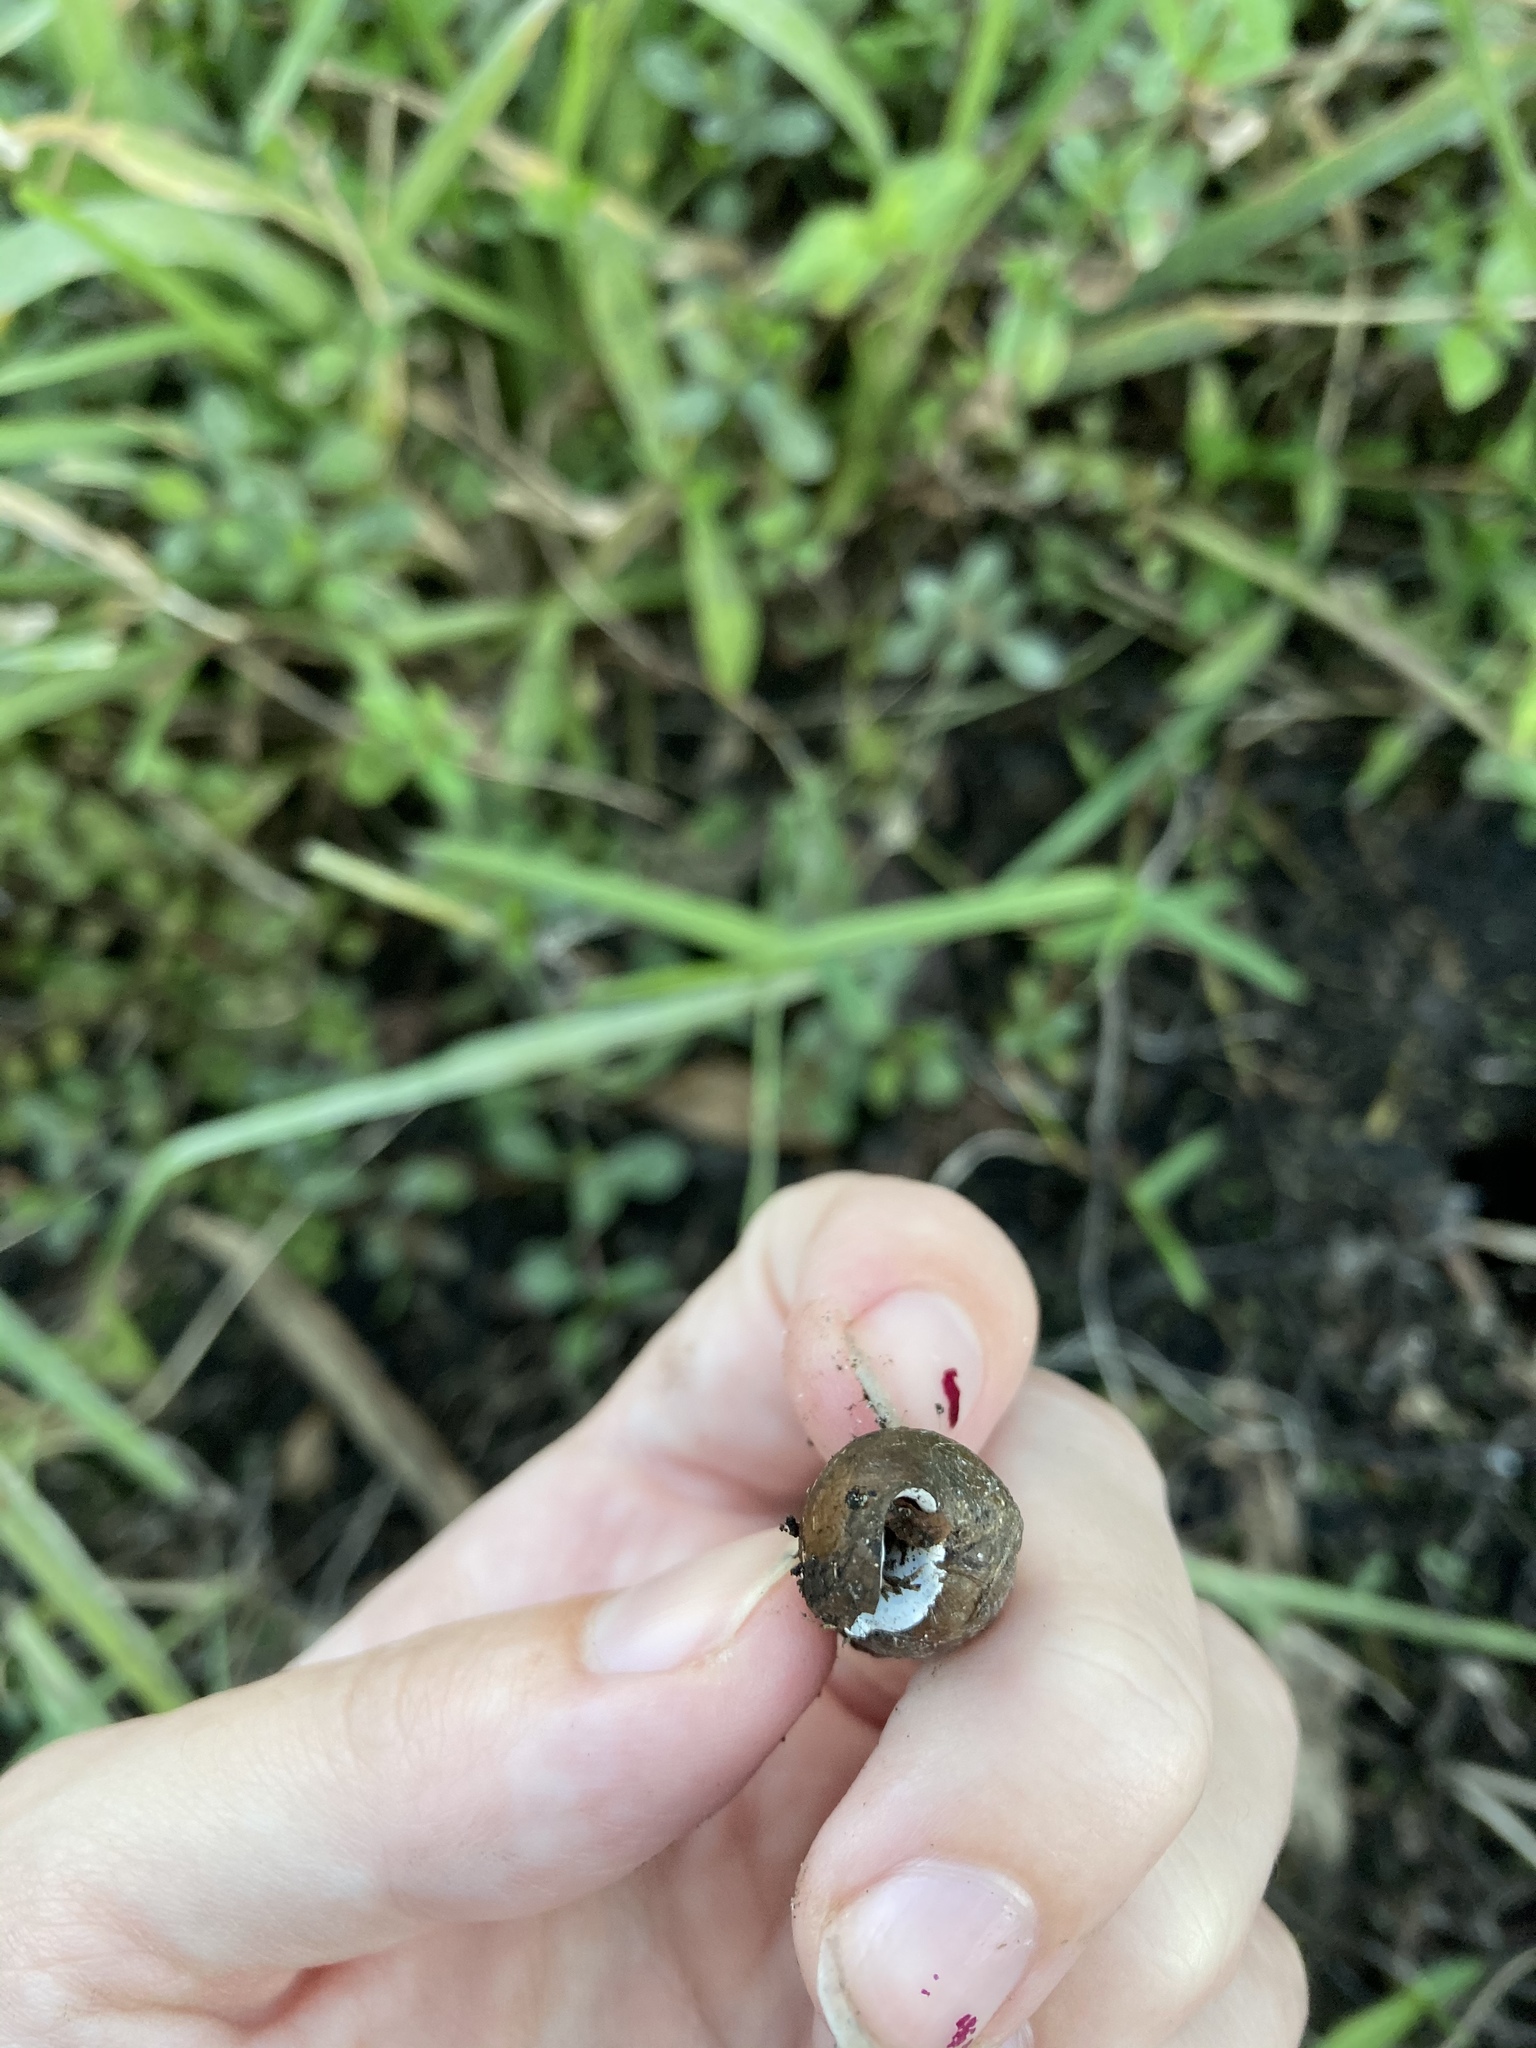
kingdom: Animalia
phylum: Mollusca
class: Gastropoda
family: Thiaridae
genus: Melanoides
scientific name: Melanoides tuberculata
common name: Red-rim melania
